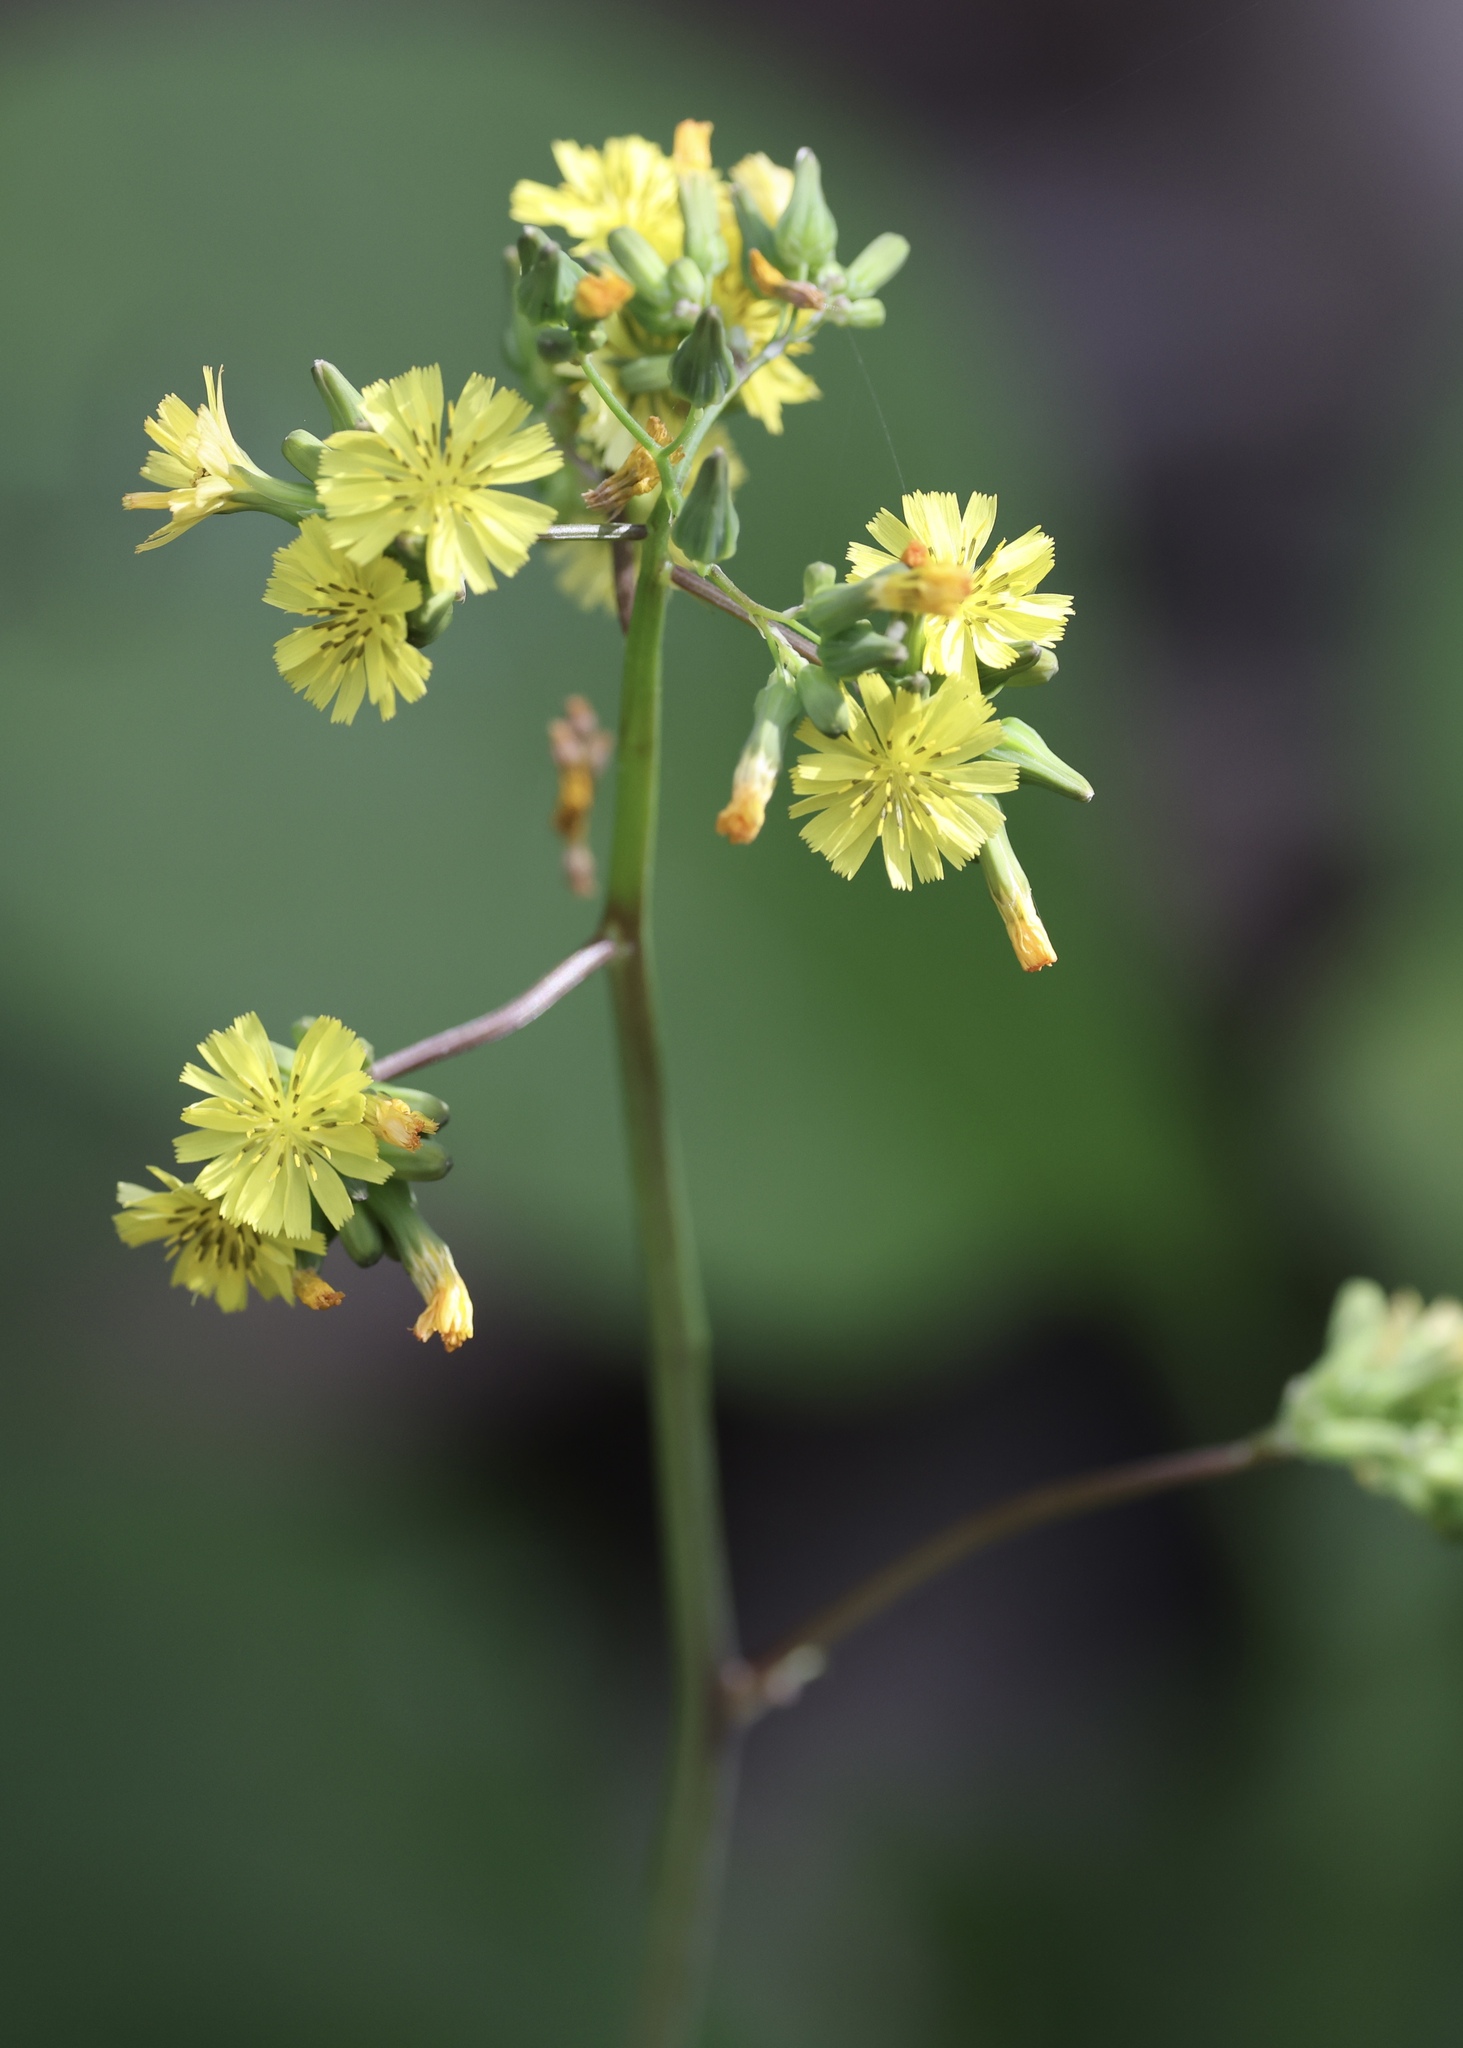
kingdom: Plantae
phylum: Tracheophyta
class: Magnoliopsida
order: Asterales
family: Asteraceae
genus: Youngia
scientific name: Youngia japonica
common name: Oriental false hawksbeard
